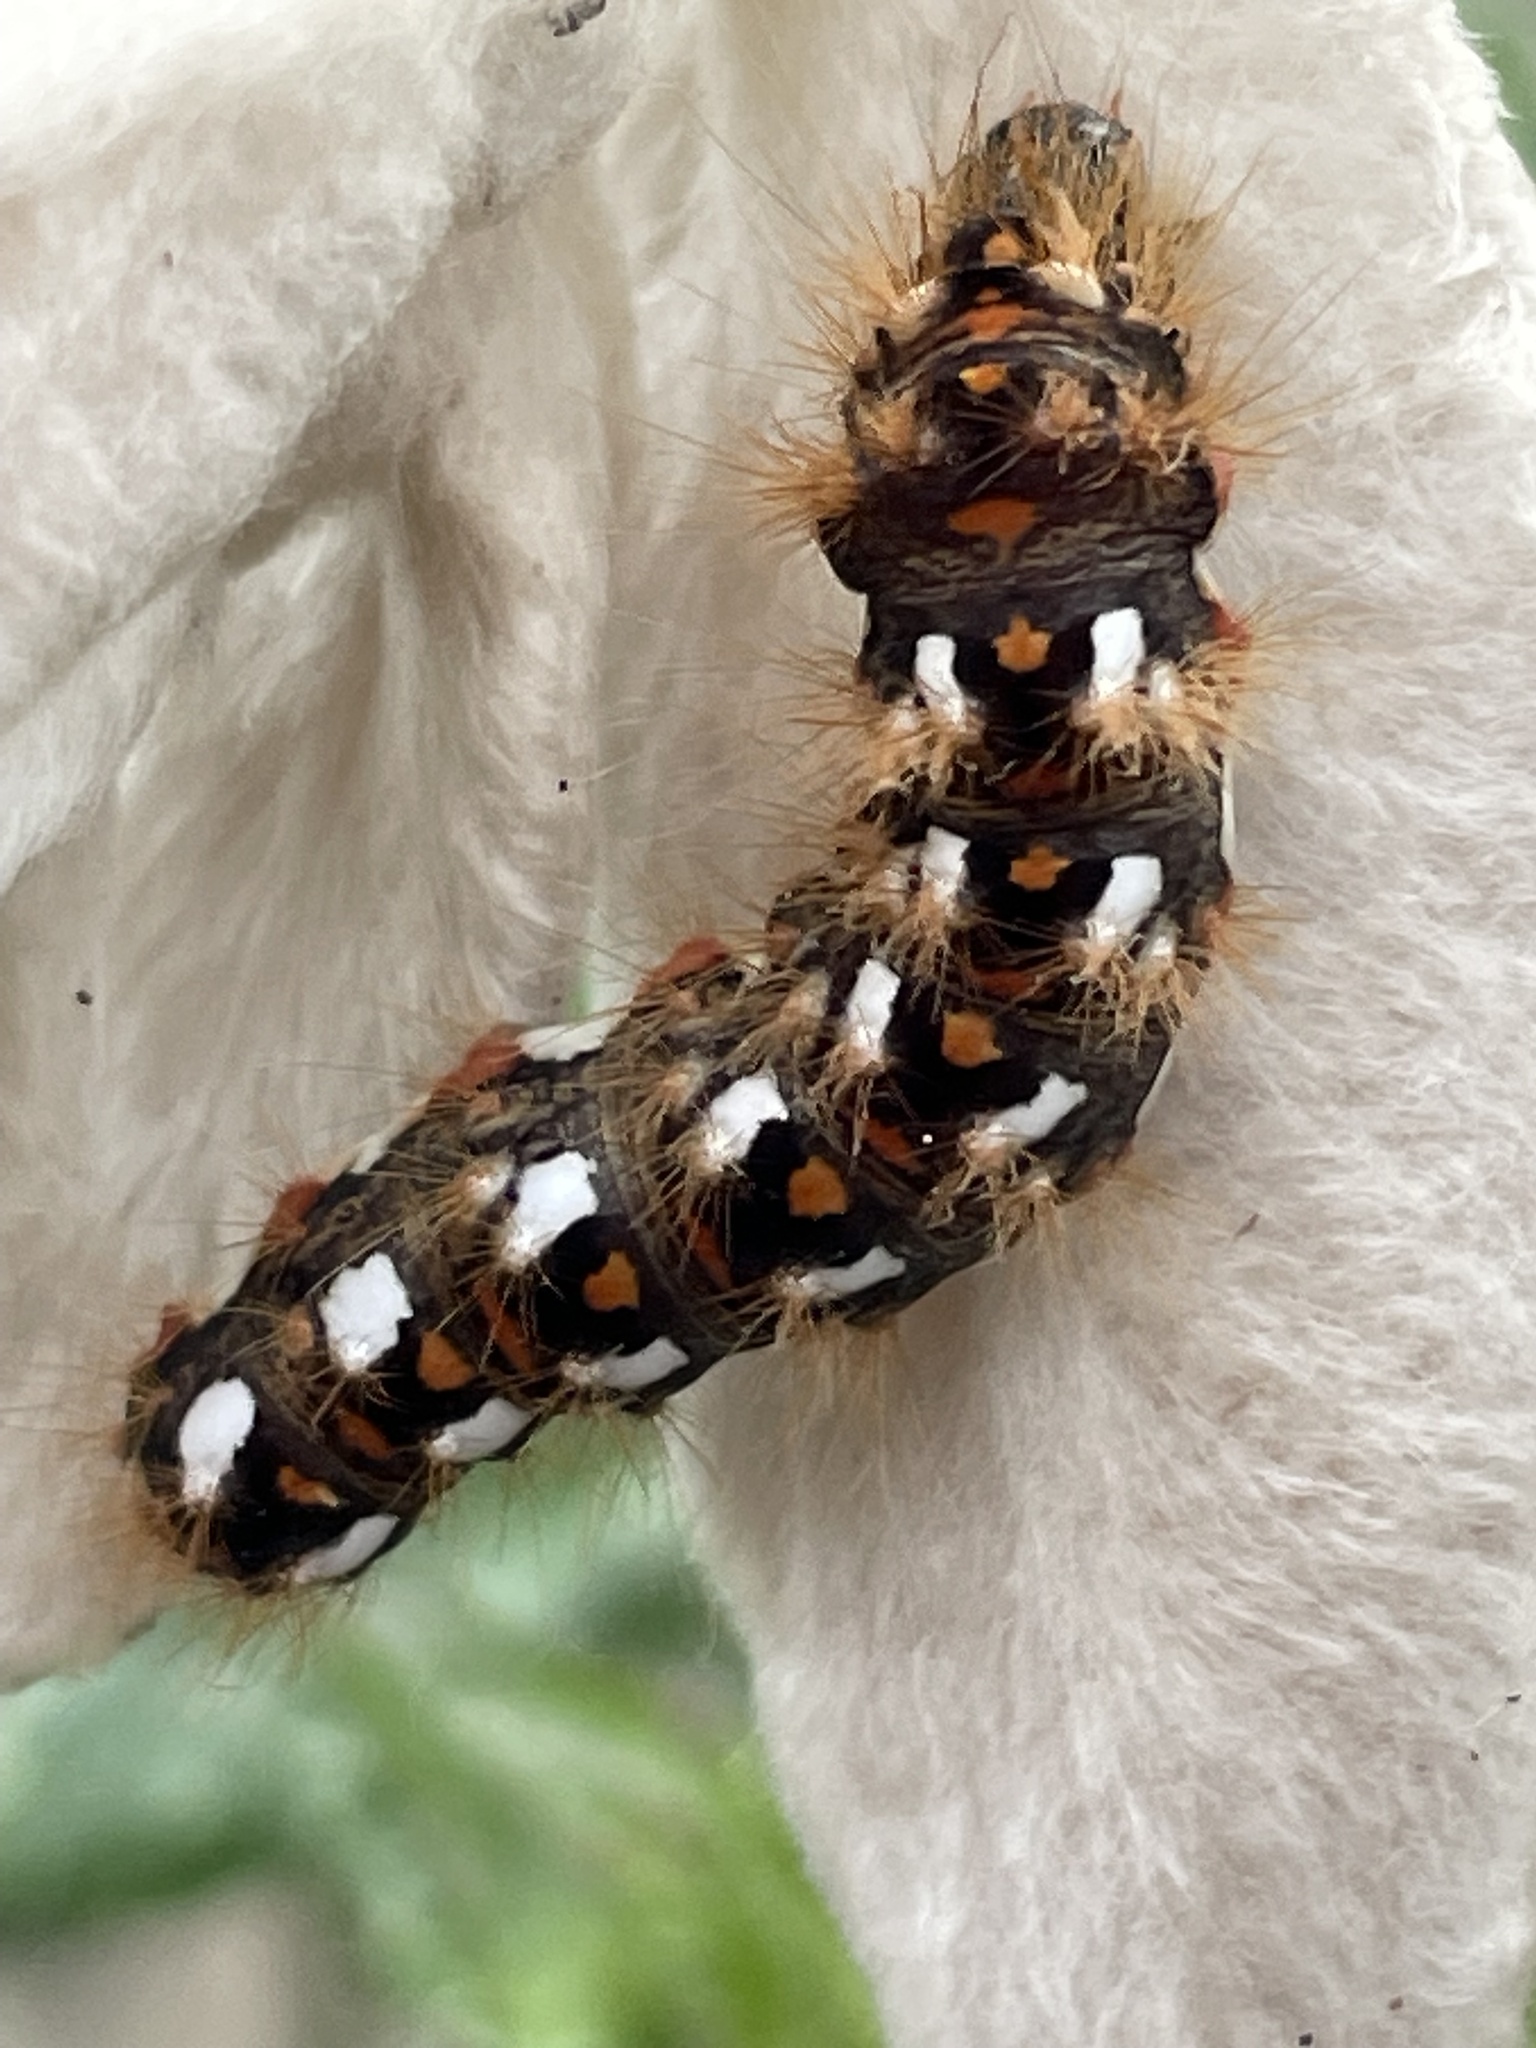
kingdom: Animalia
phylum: Arthropoda
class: Insecta
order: Lepidoptera
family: Noctuidae
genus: Acronicta
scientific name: Acronicta rumicis
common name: Knot grass
